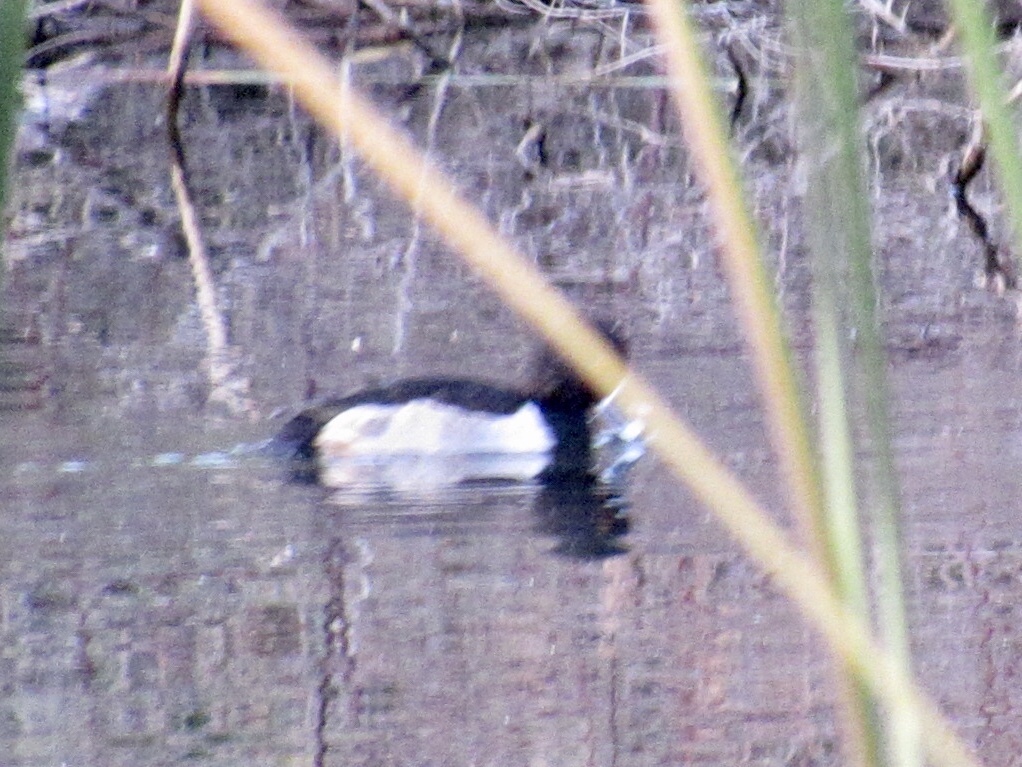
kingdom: Animalia
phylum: Chordata
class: Aves
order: Anseriformes
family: Anatidae
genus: Aythya
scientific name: Aythya collaris
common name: Ring-necked duck
